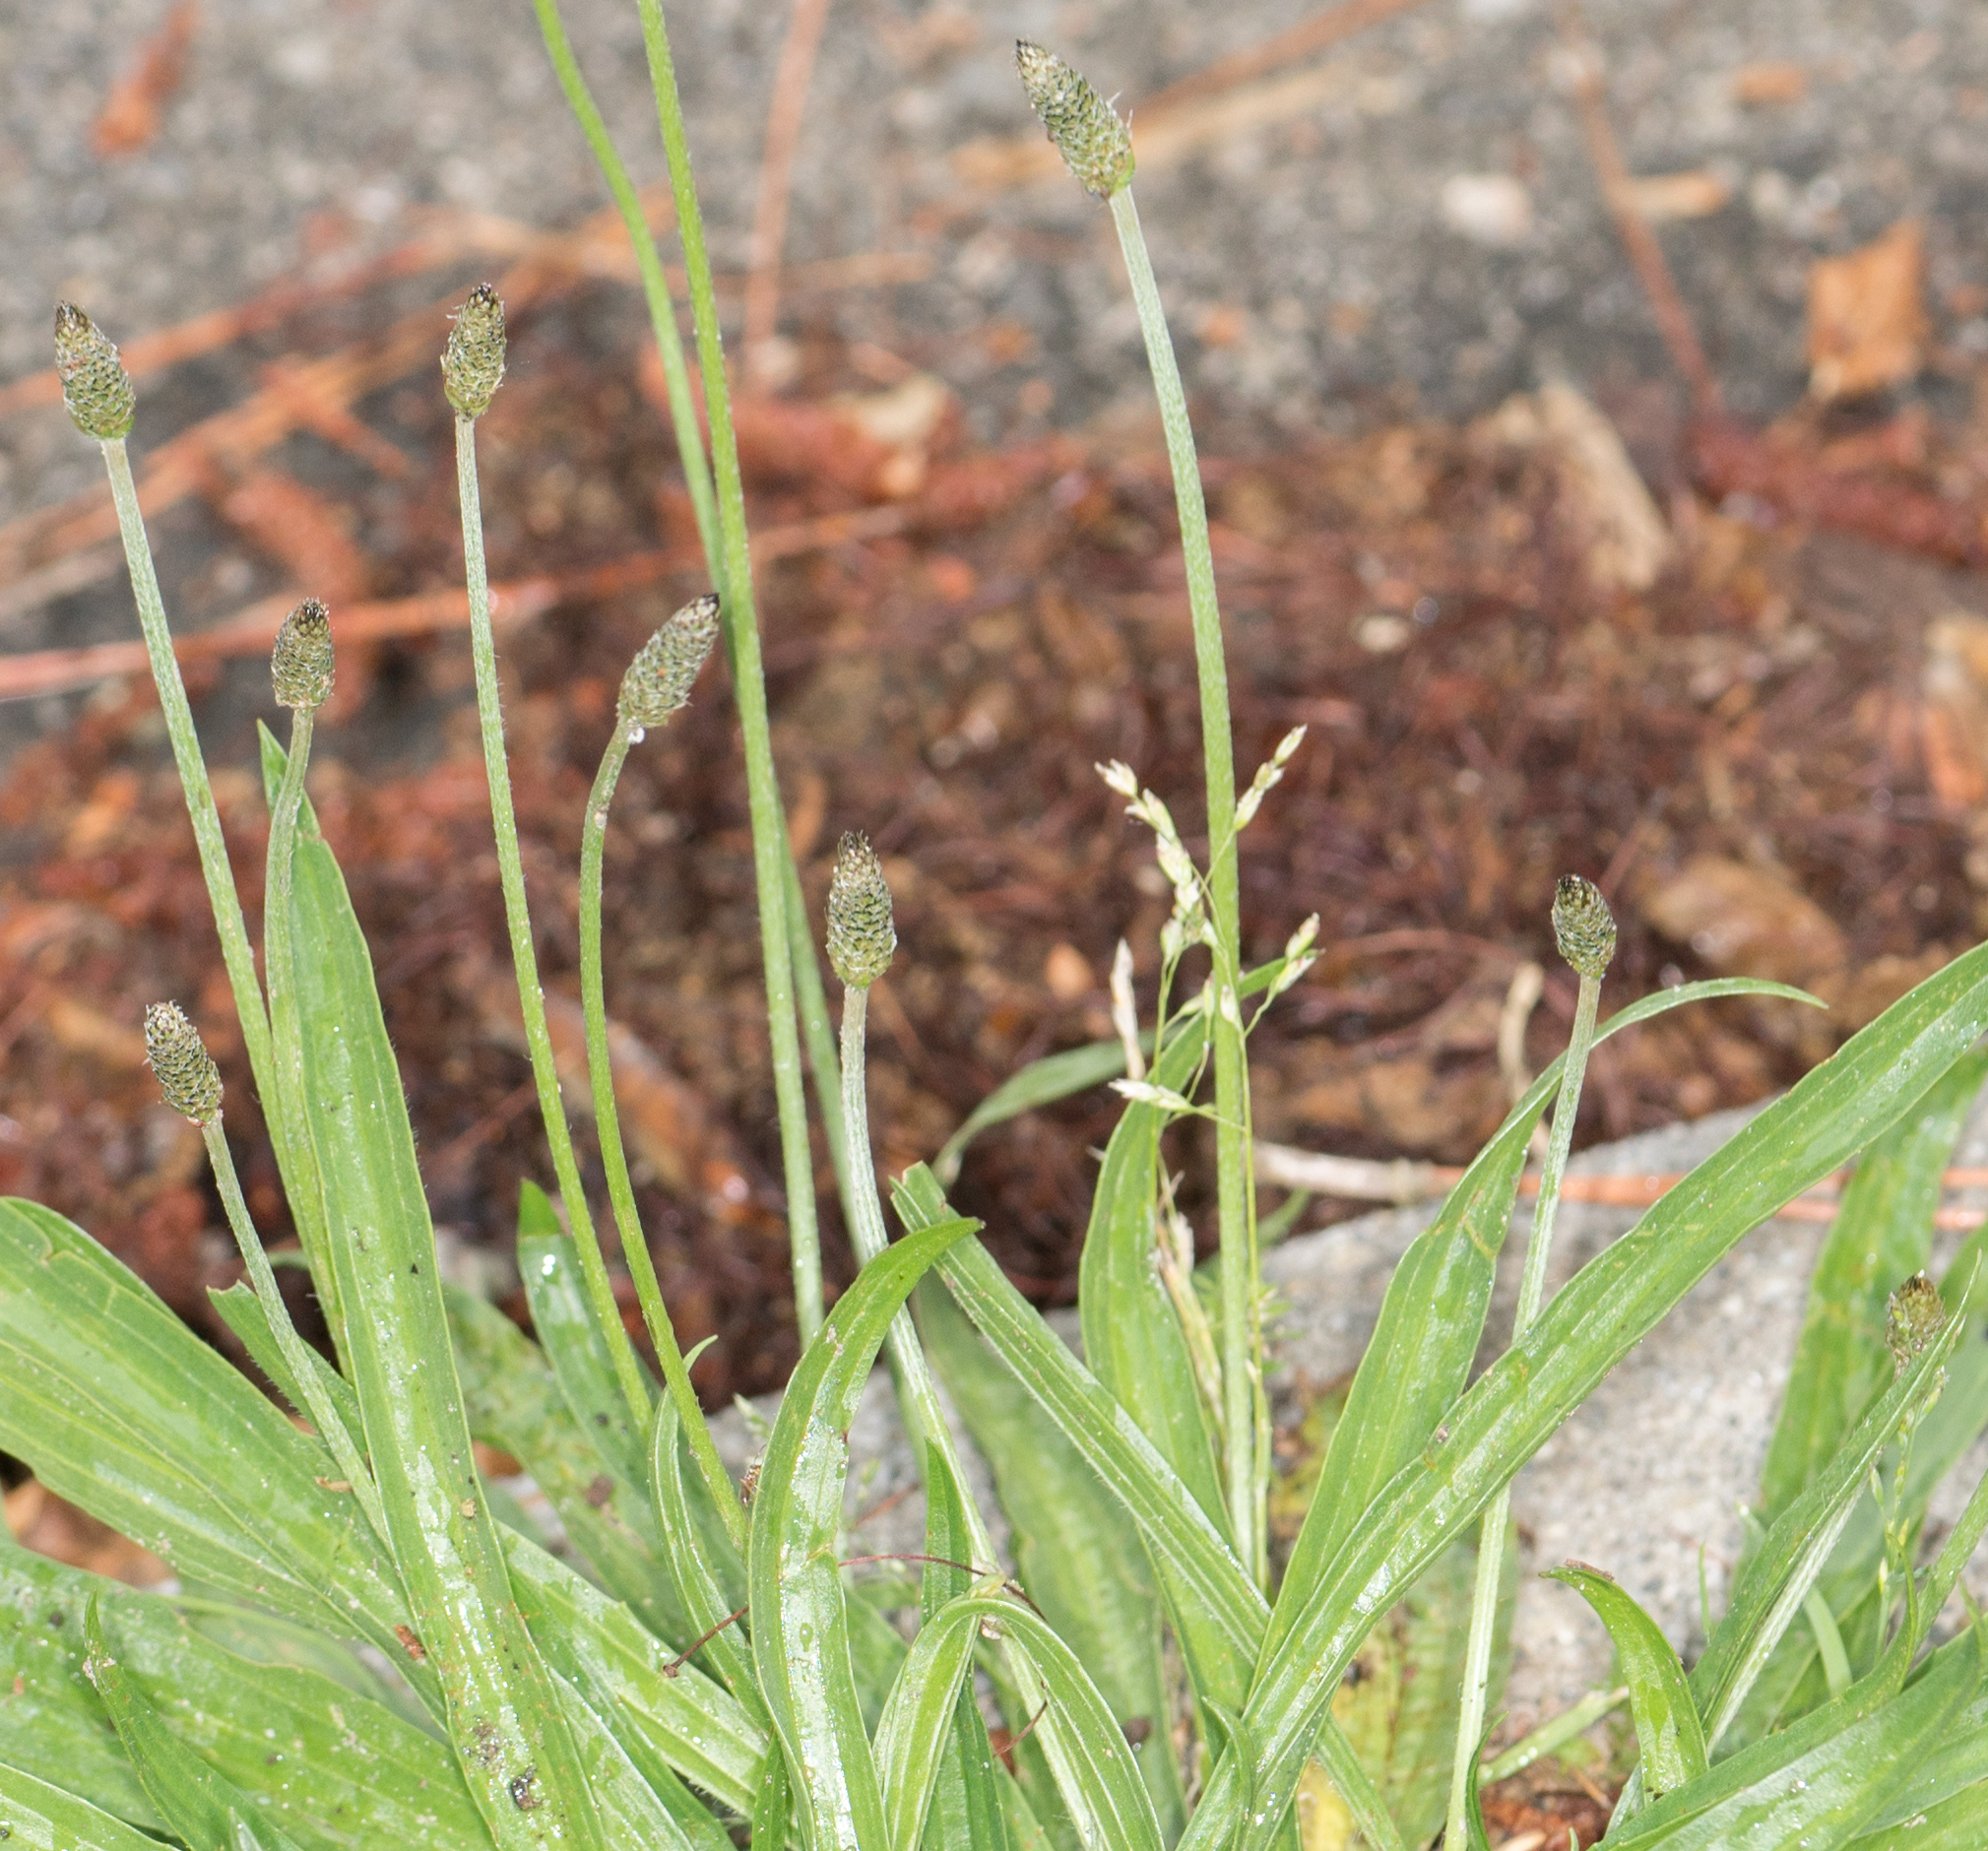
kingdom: Plantae
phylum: Tracheophyta
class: Magnoliopsida
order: Lamiales
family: Plantaginaceae
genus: Plantago
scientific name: Plantago lanceolata
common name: Ribwort plantain
